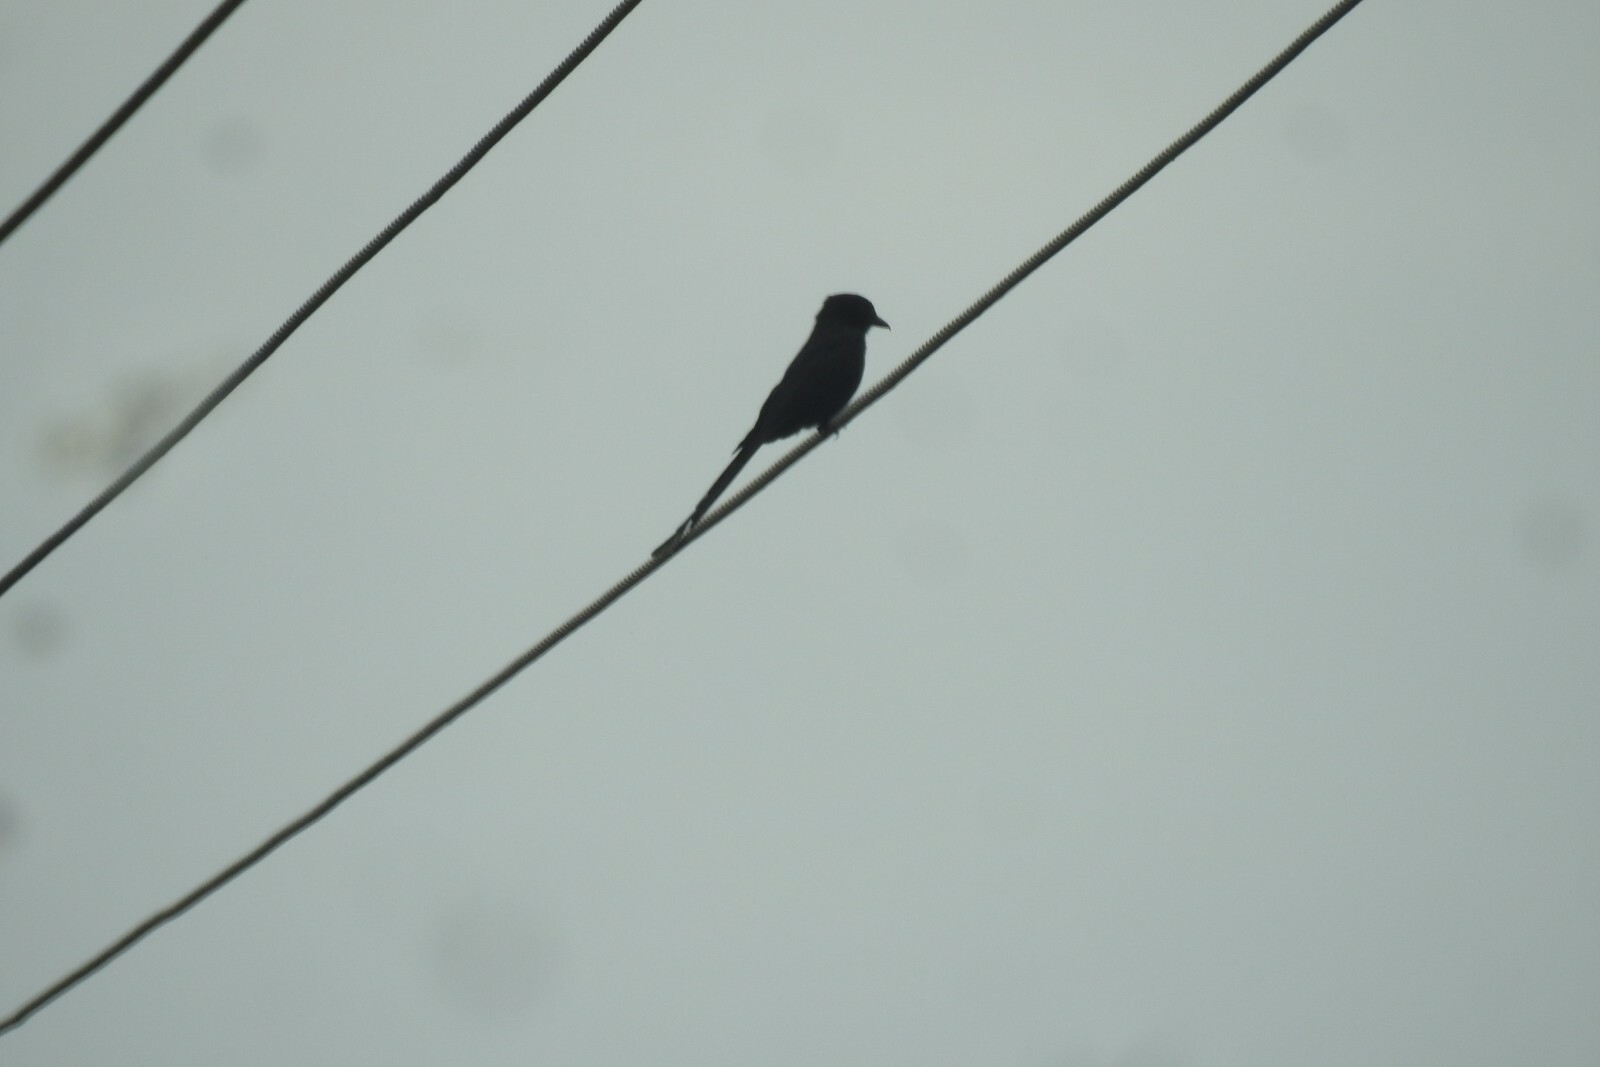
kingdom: Animalia
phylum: Chordata
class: Aves
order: Passeriformes
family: Dicruridae
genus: Dicrurus
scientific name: Dicrurus macrocercus
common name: Black drongo
